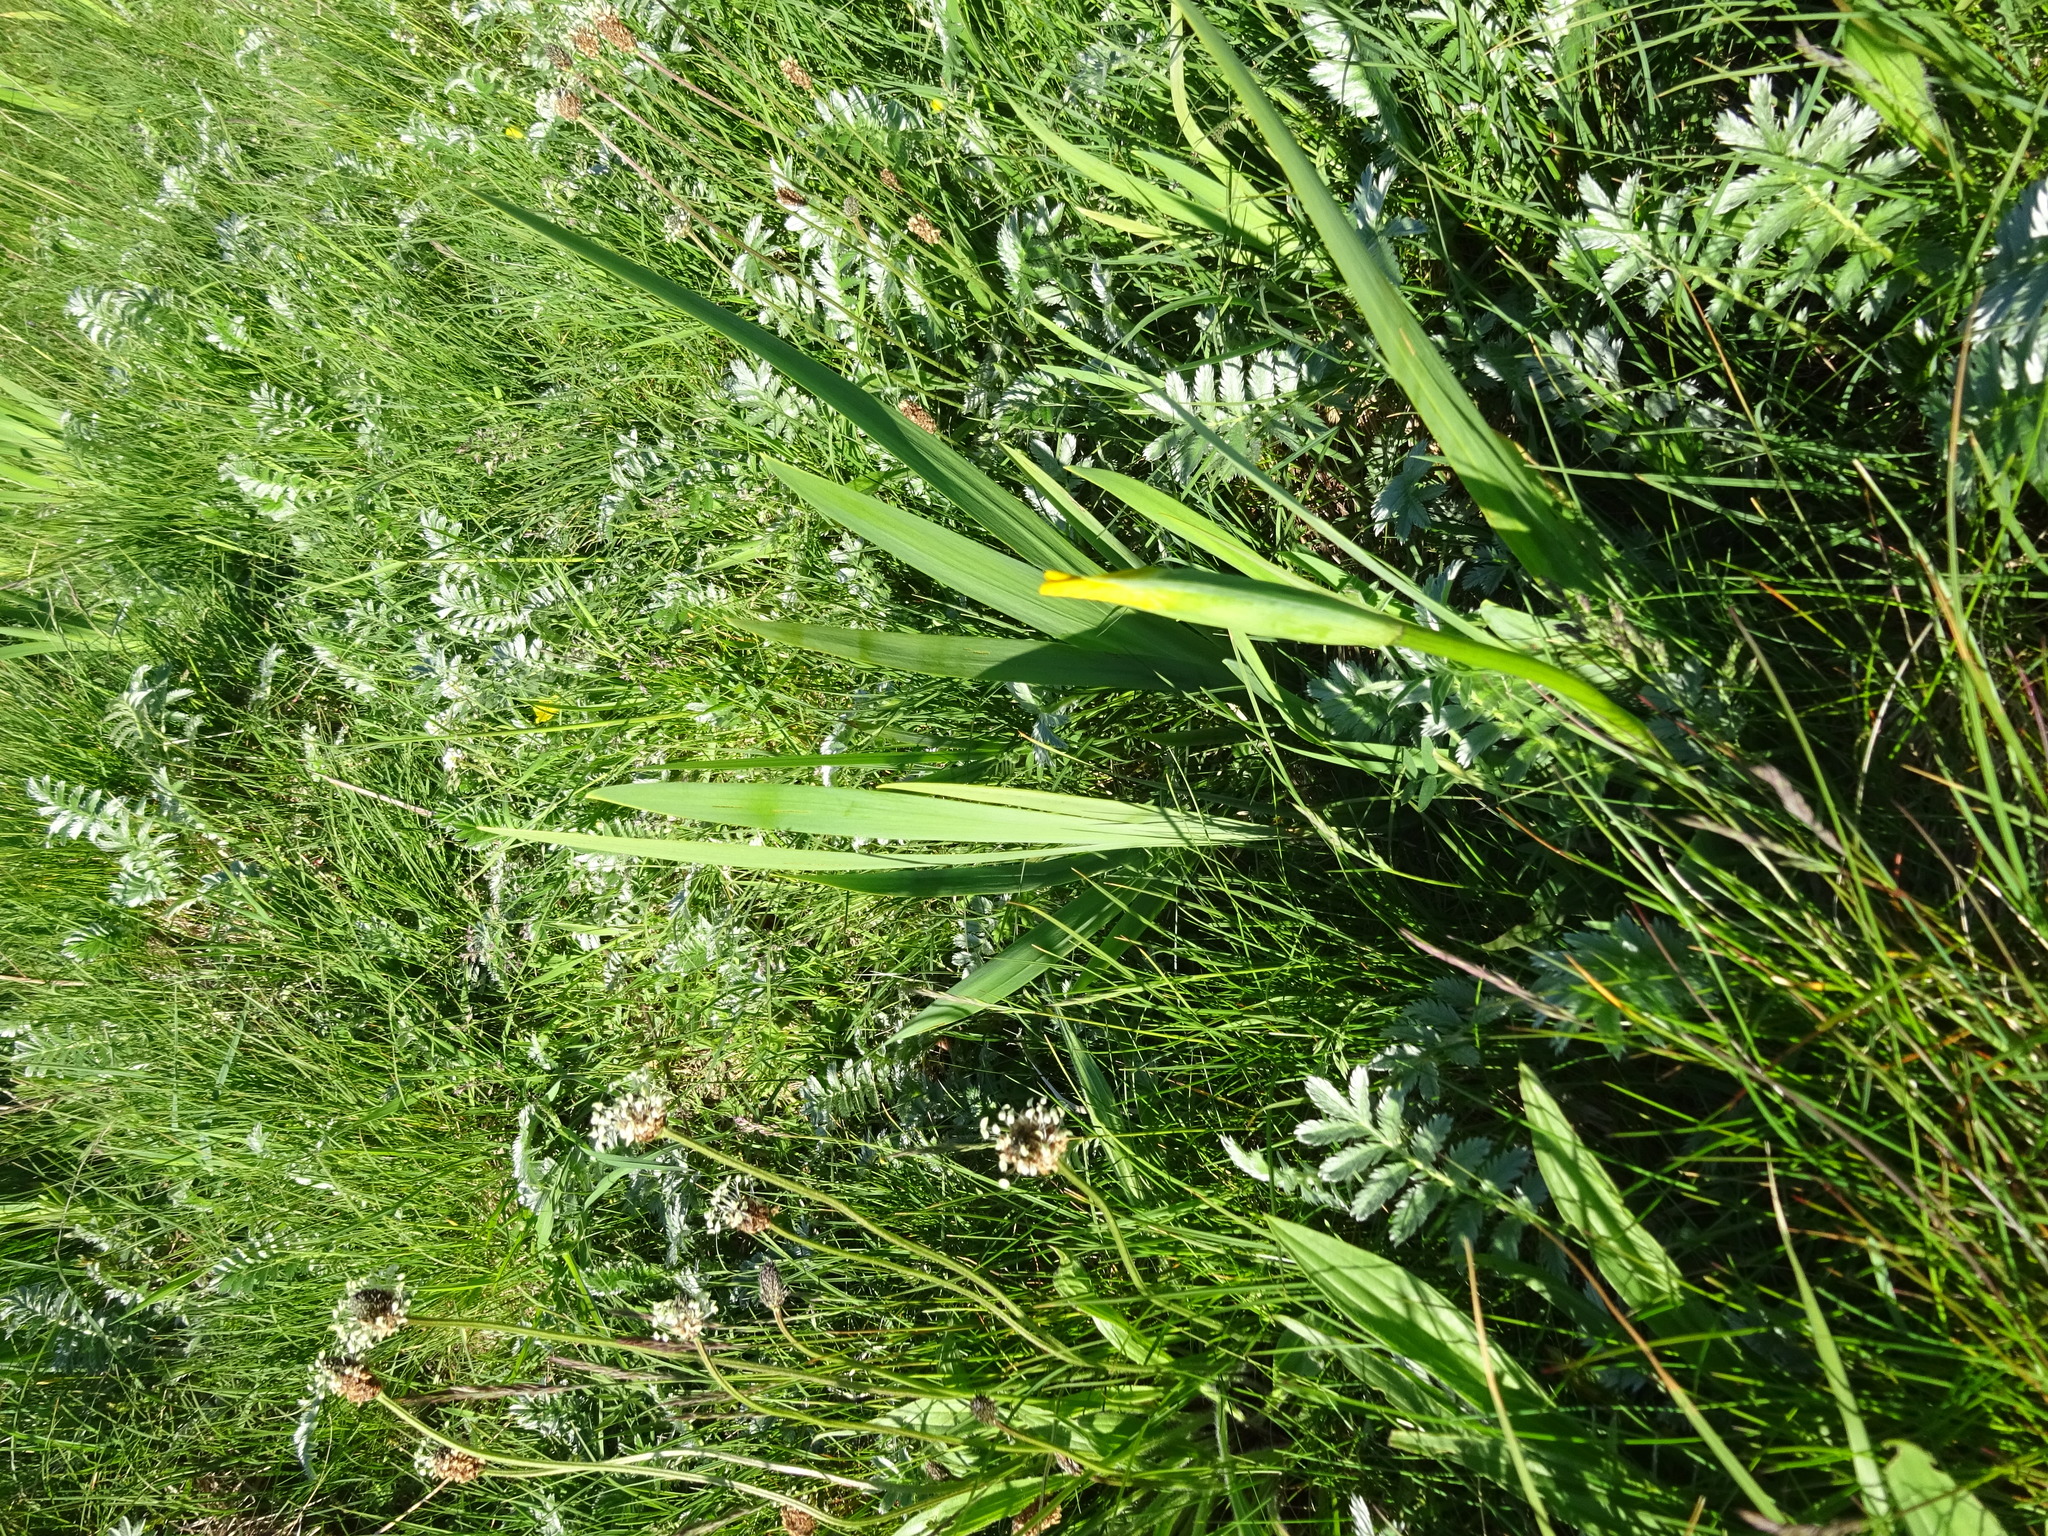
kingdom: Plantae
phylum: Tracheophyta
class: Liliopsida
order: Asparagales
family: Iridaceae
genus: Iris
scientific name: Iris pseudacorus
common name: Yellow flag
